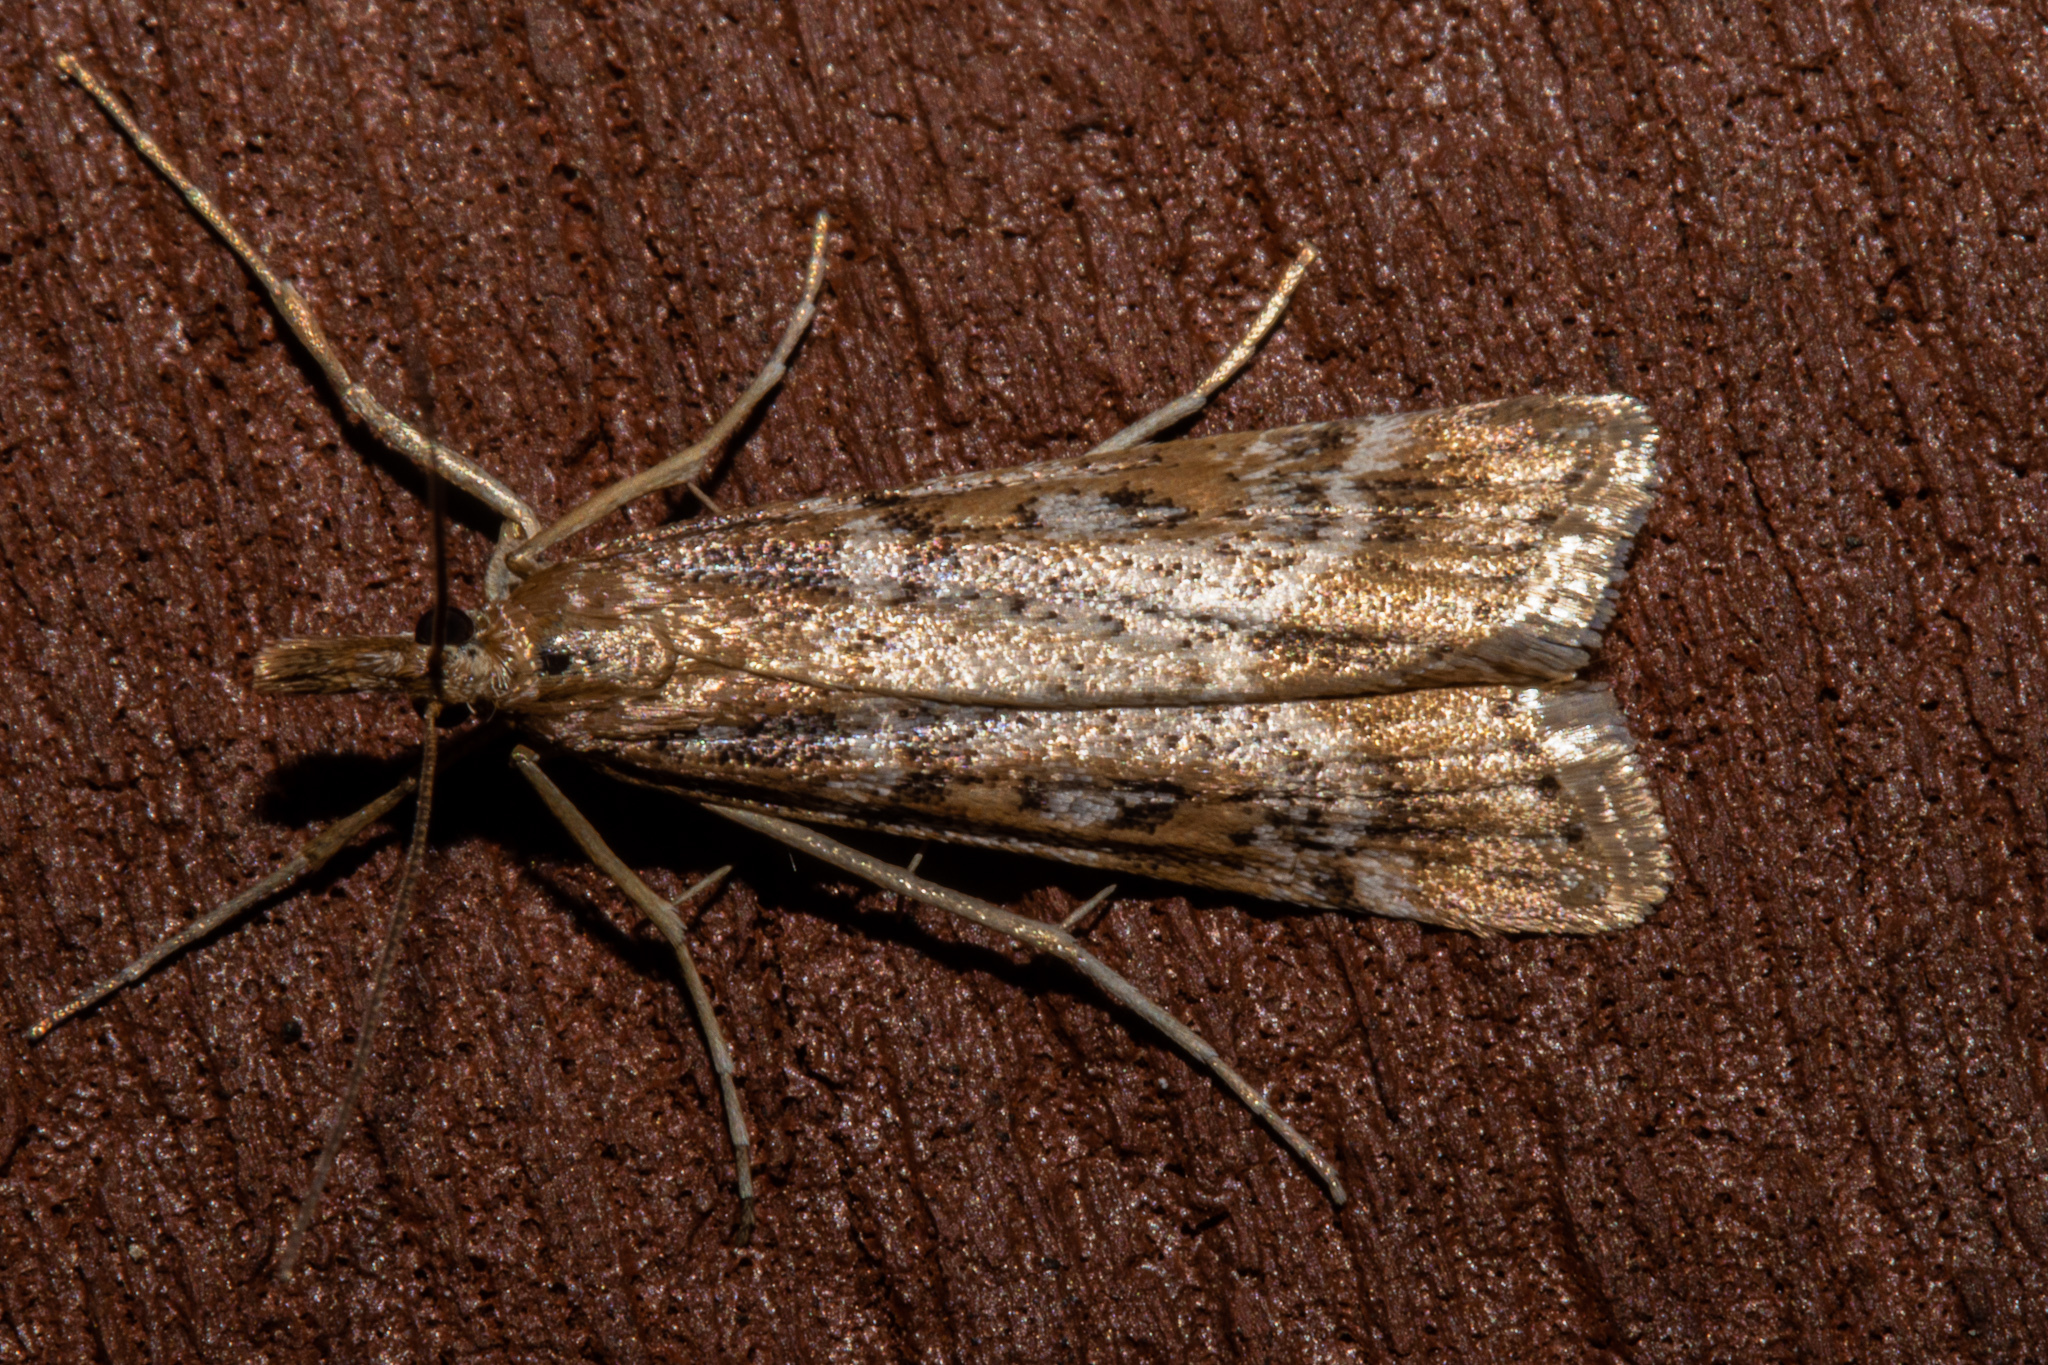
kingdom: Animalia
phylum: Arthropoda
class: Insecta
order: Lepidoptera
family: Crambidae
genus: Scoparia
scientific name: Scoparia dryphactis
